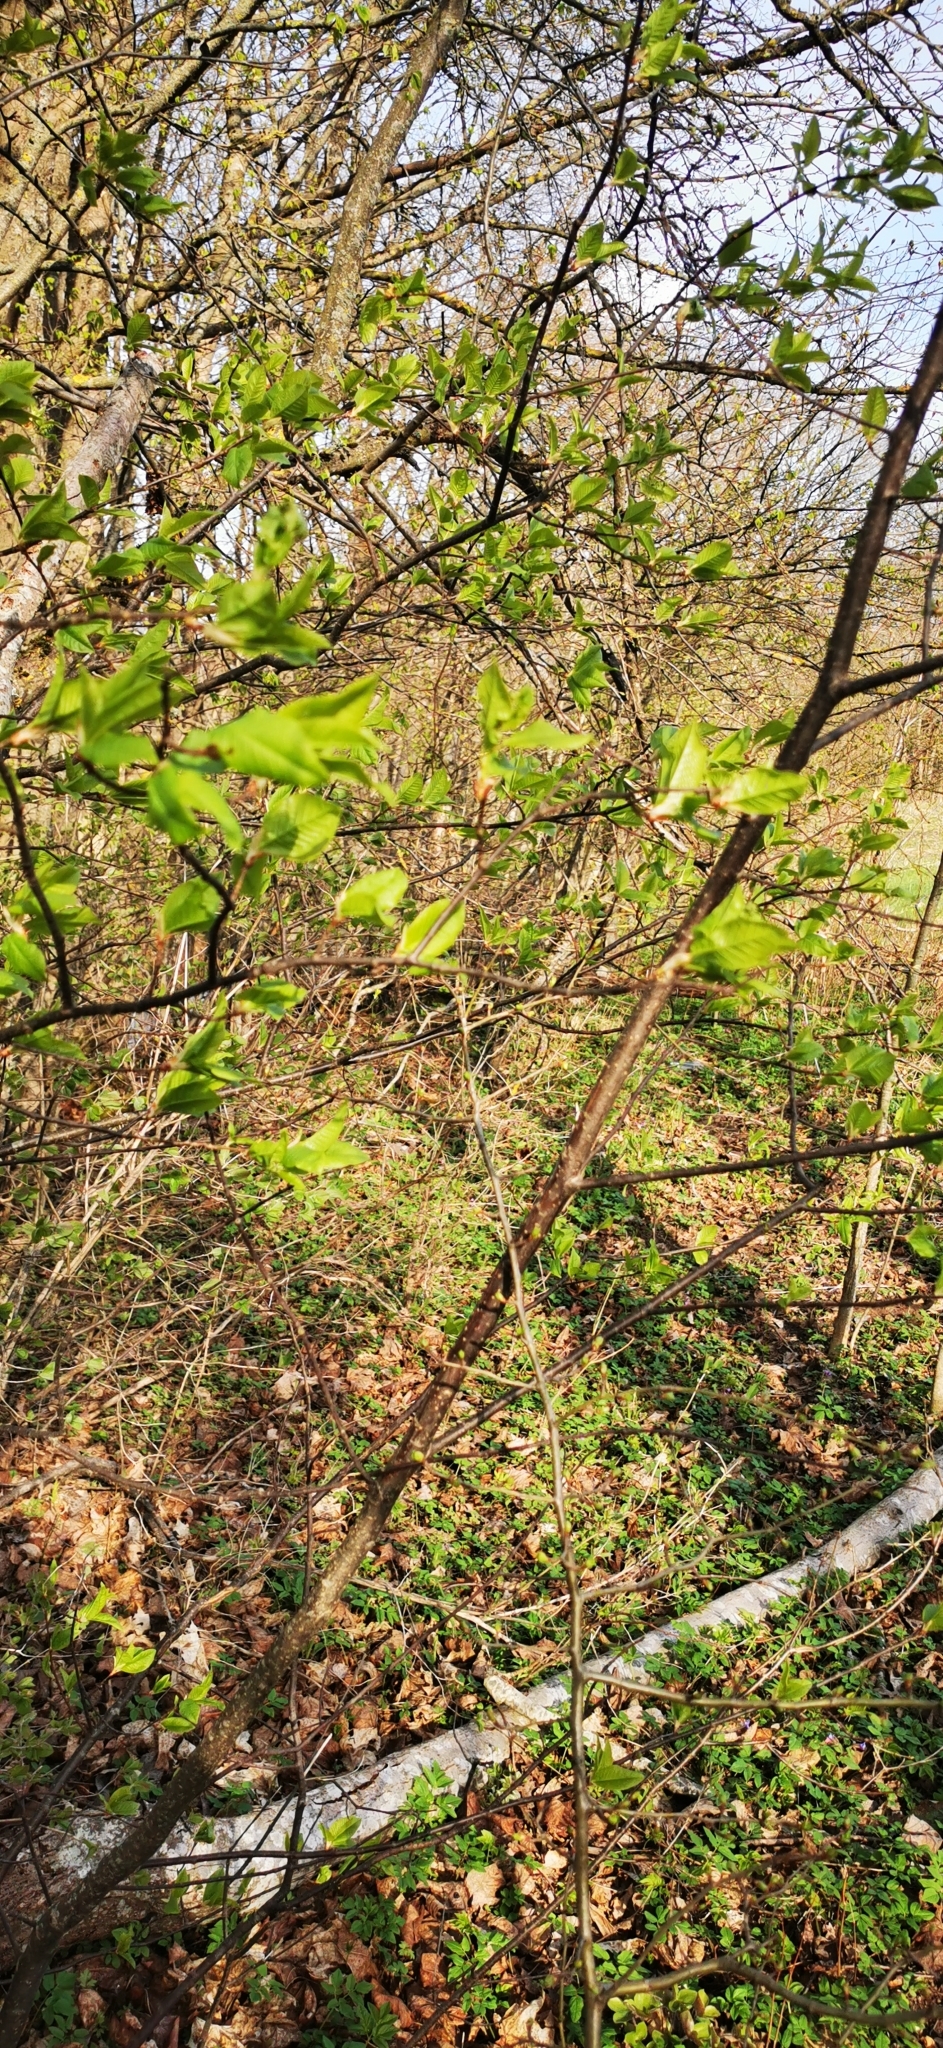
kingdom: Plantae
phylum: Tracheophyta
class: Magnoliopsida
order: Rosales
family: Rosaceae
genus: Prunus
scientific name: Prunus padus
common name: Bird cherry
